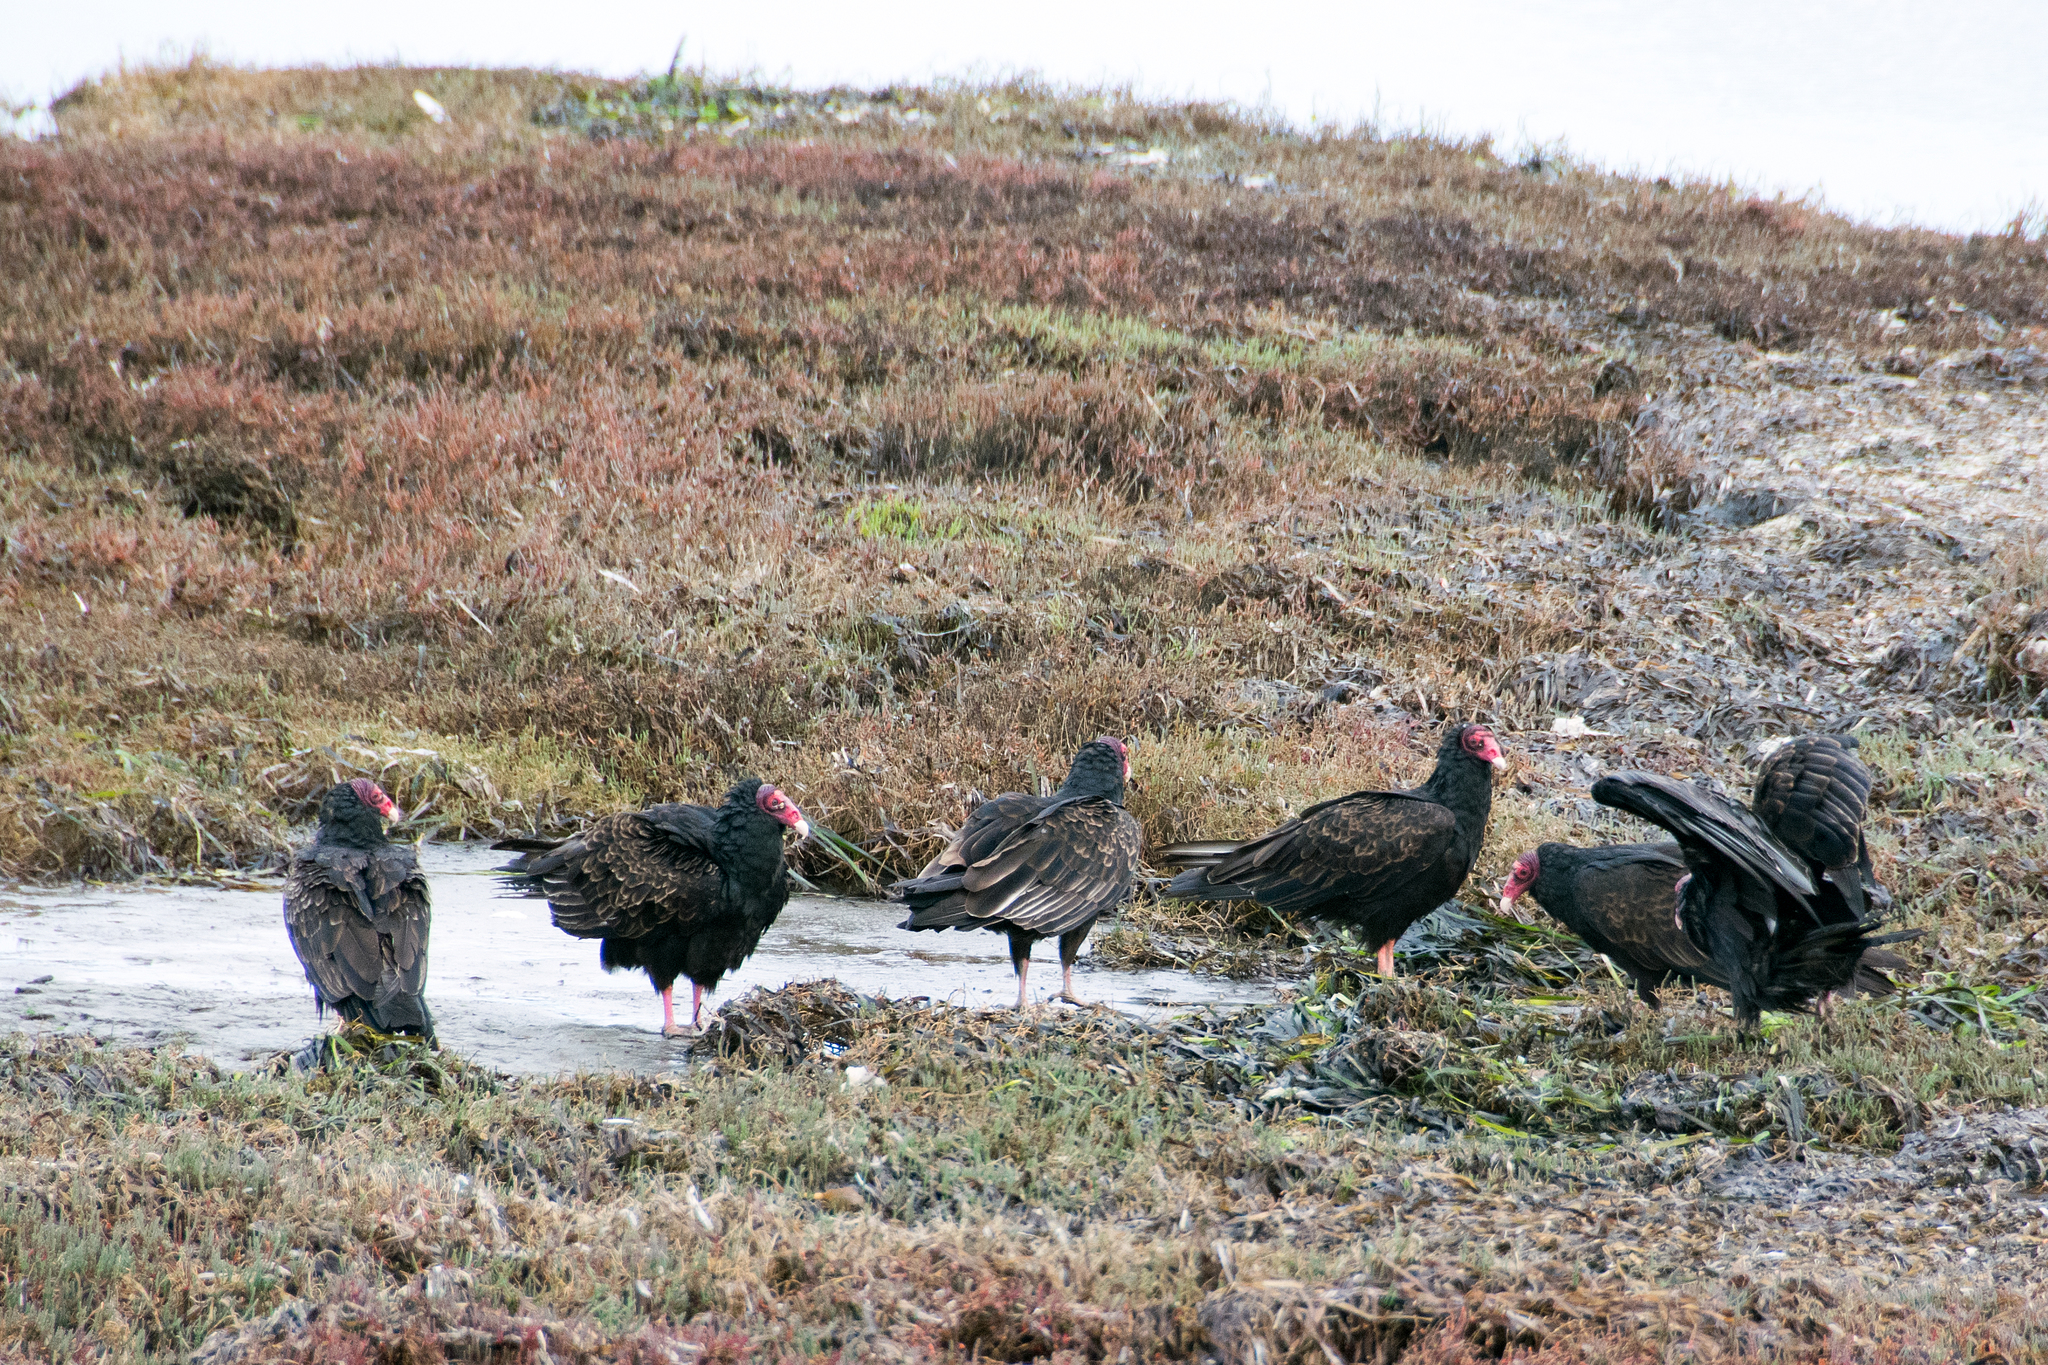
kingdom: Animalia
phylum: Chordata
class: Aves
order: Accipitriformes
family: Cathartidae
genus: Cathartes
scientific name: Cathartes aura
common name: Turkey vulture
